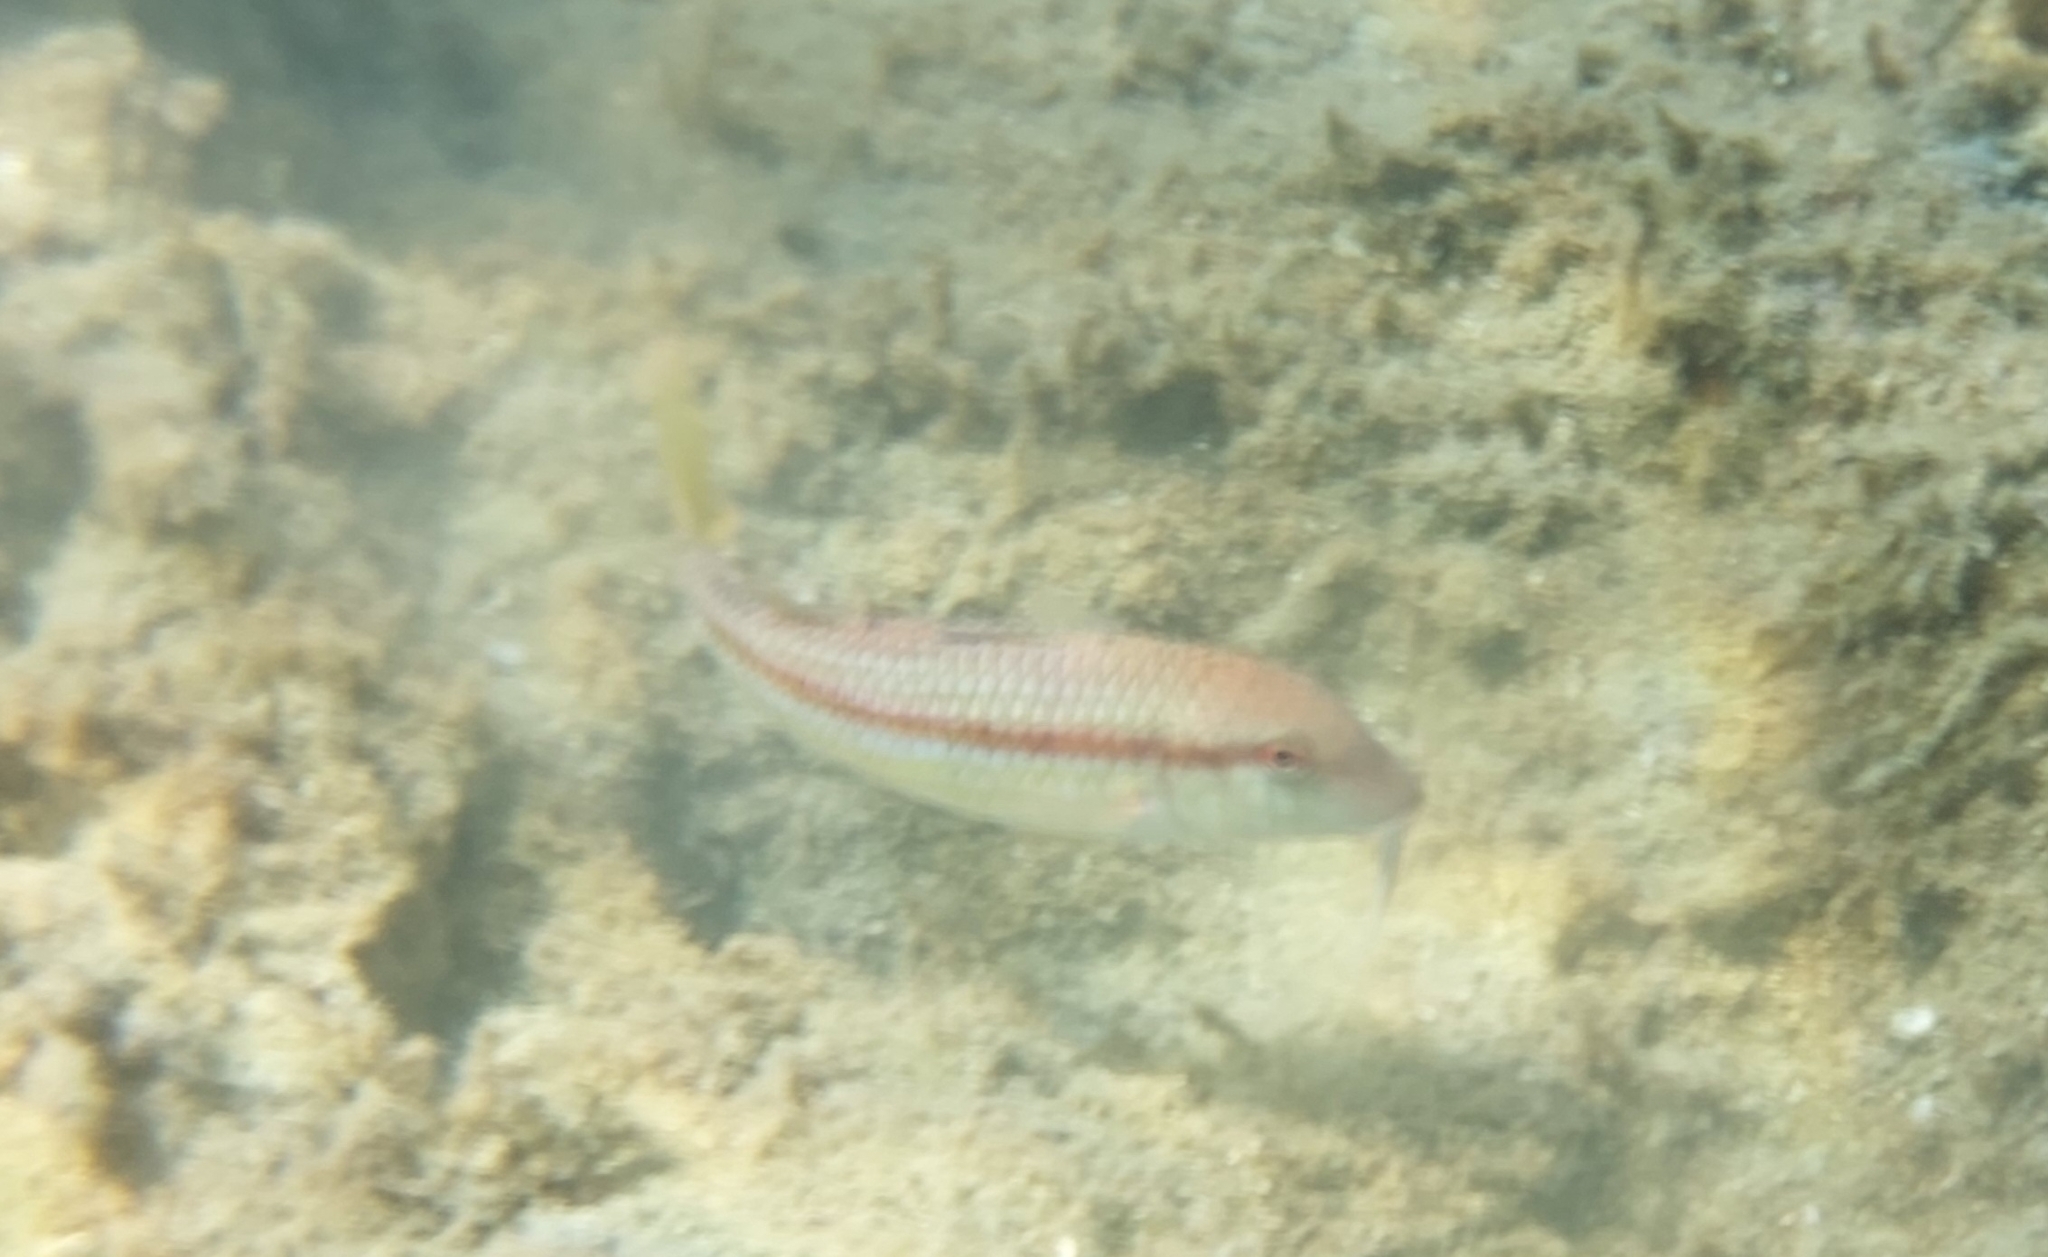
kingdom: Animalia
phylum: Chordata
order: Perciformes
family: Mullidae
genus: Mullus
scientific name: Mullus
